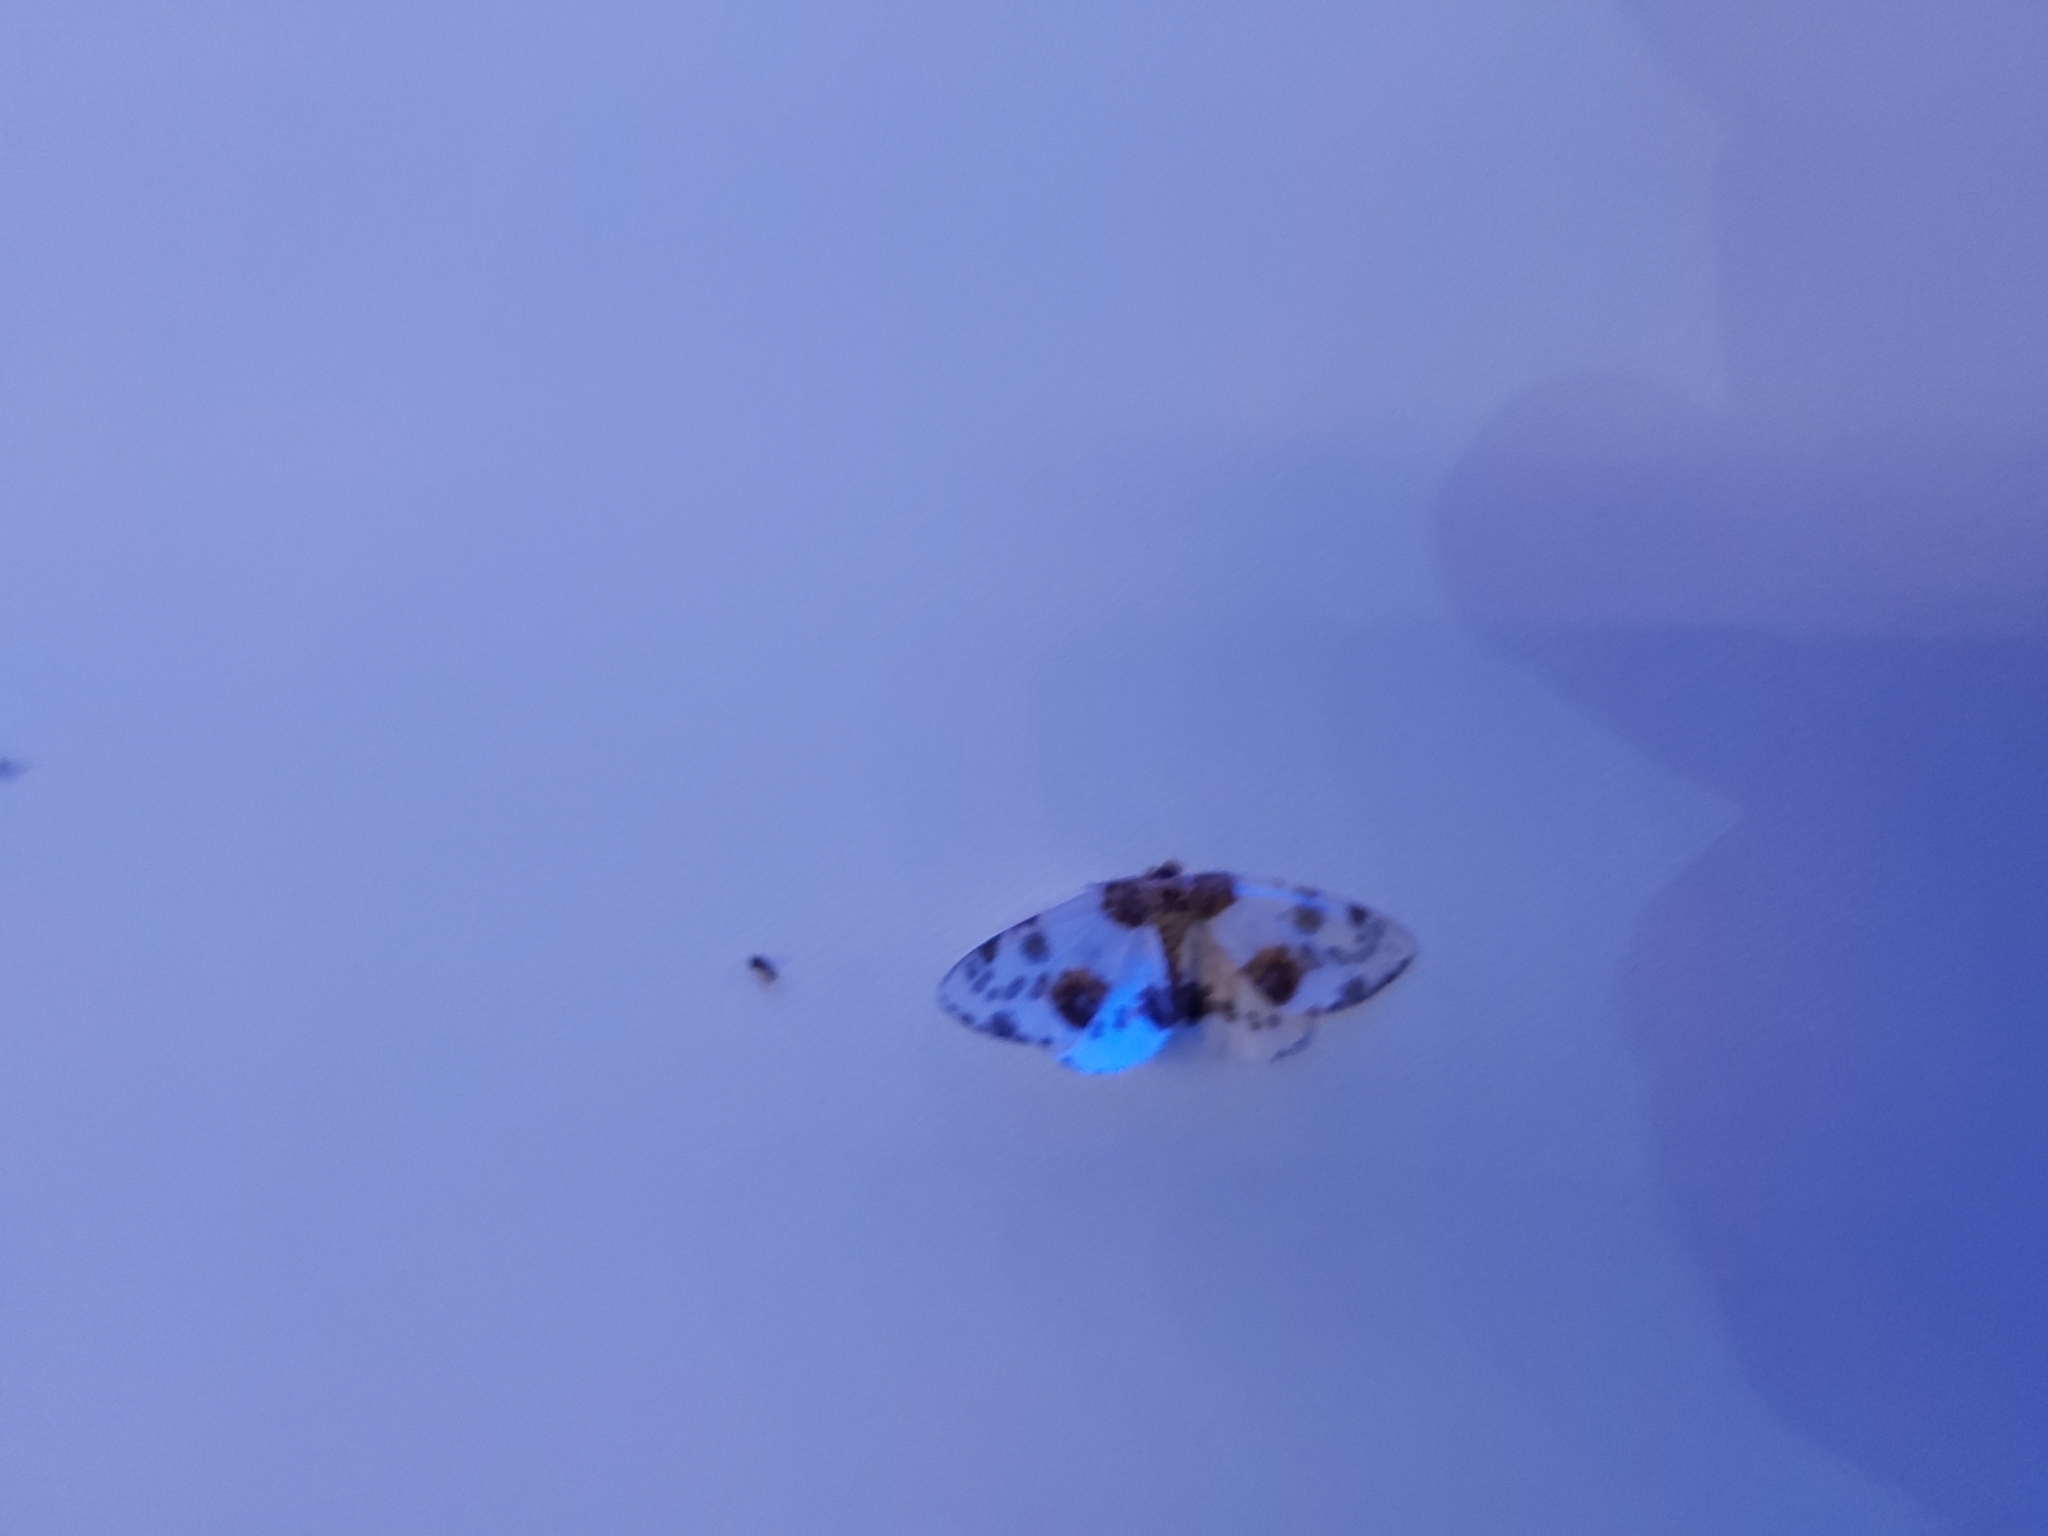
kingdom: Animalia
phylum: Arthropoda
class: Insecta
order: Lepidoptera
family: Geometridae
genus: Abraxas
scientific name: Abraxas sylvata
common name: Clouded magpie
